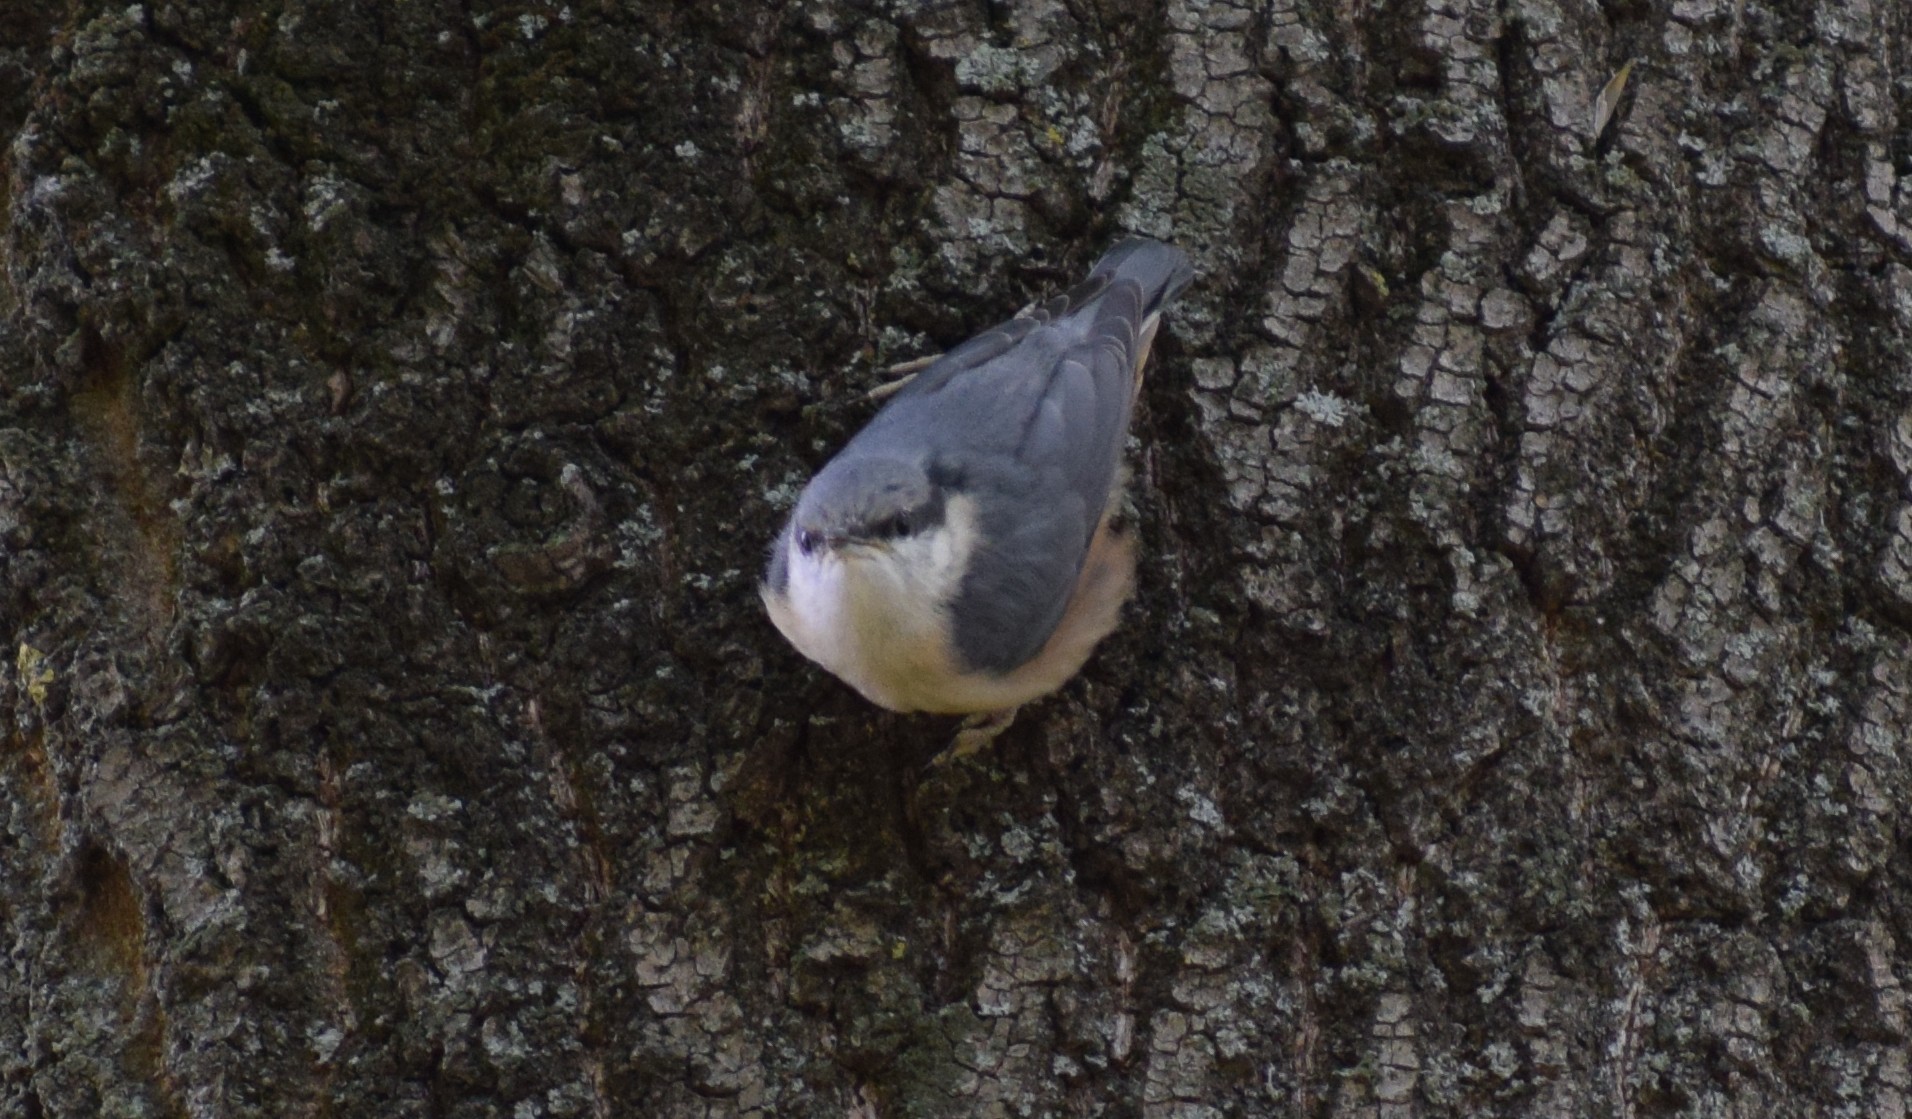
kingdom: Animalia
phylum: Chordata
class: Aves
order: Passeriformes
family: Sittidae
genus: Sitta
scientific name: Sitta europaea
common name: Eurasian nuthatch
